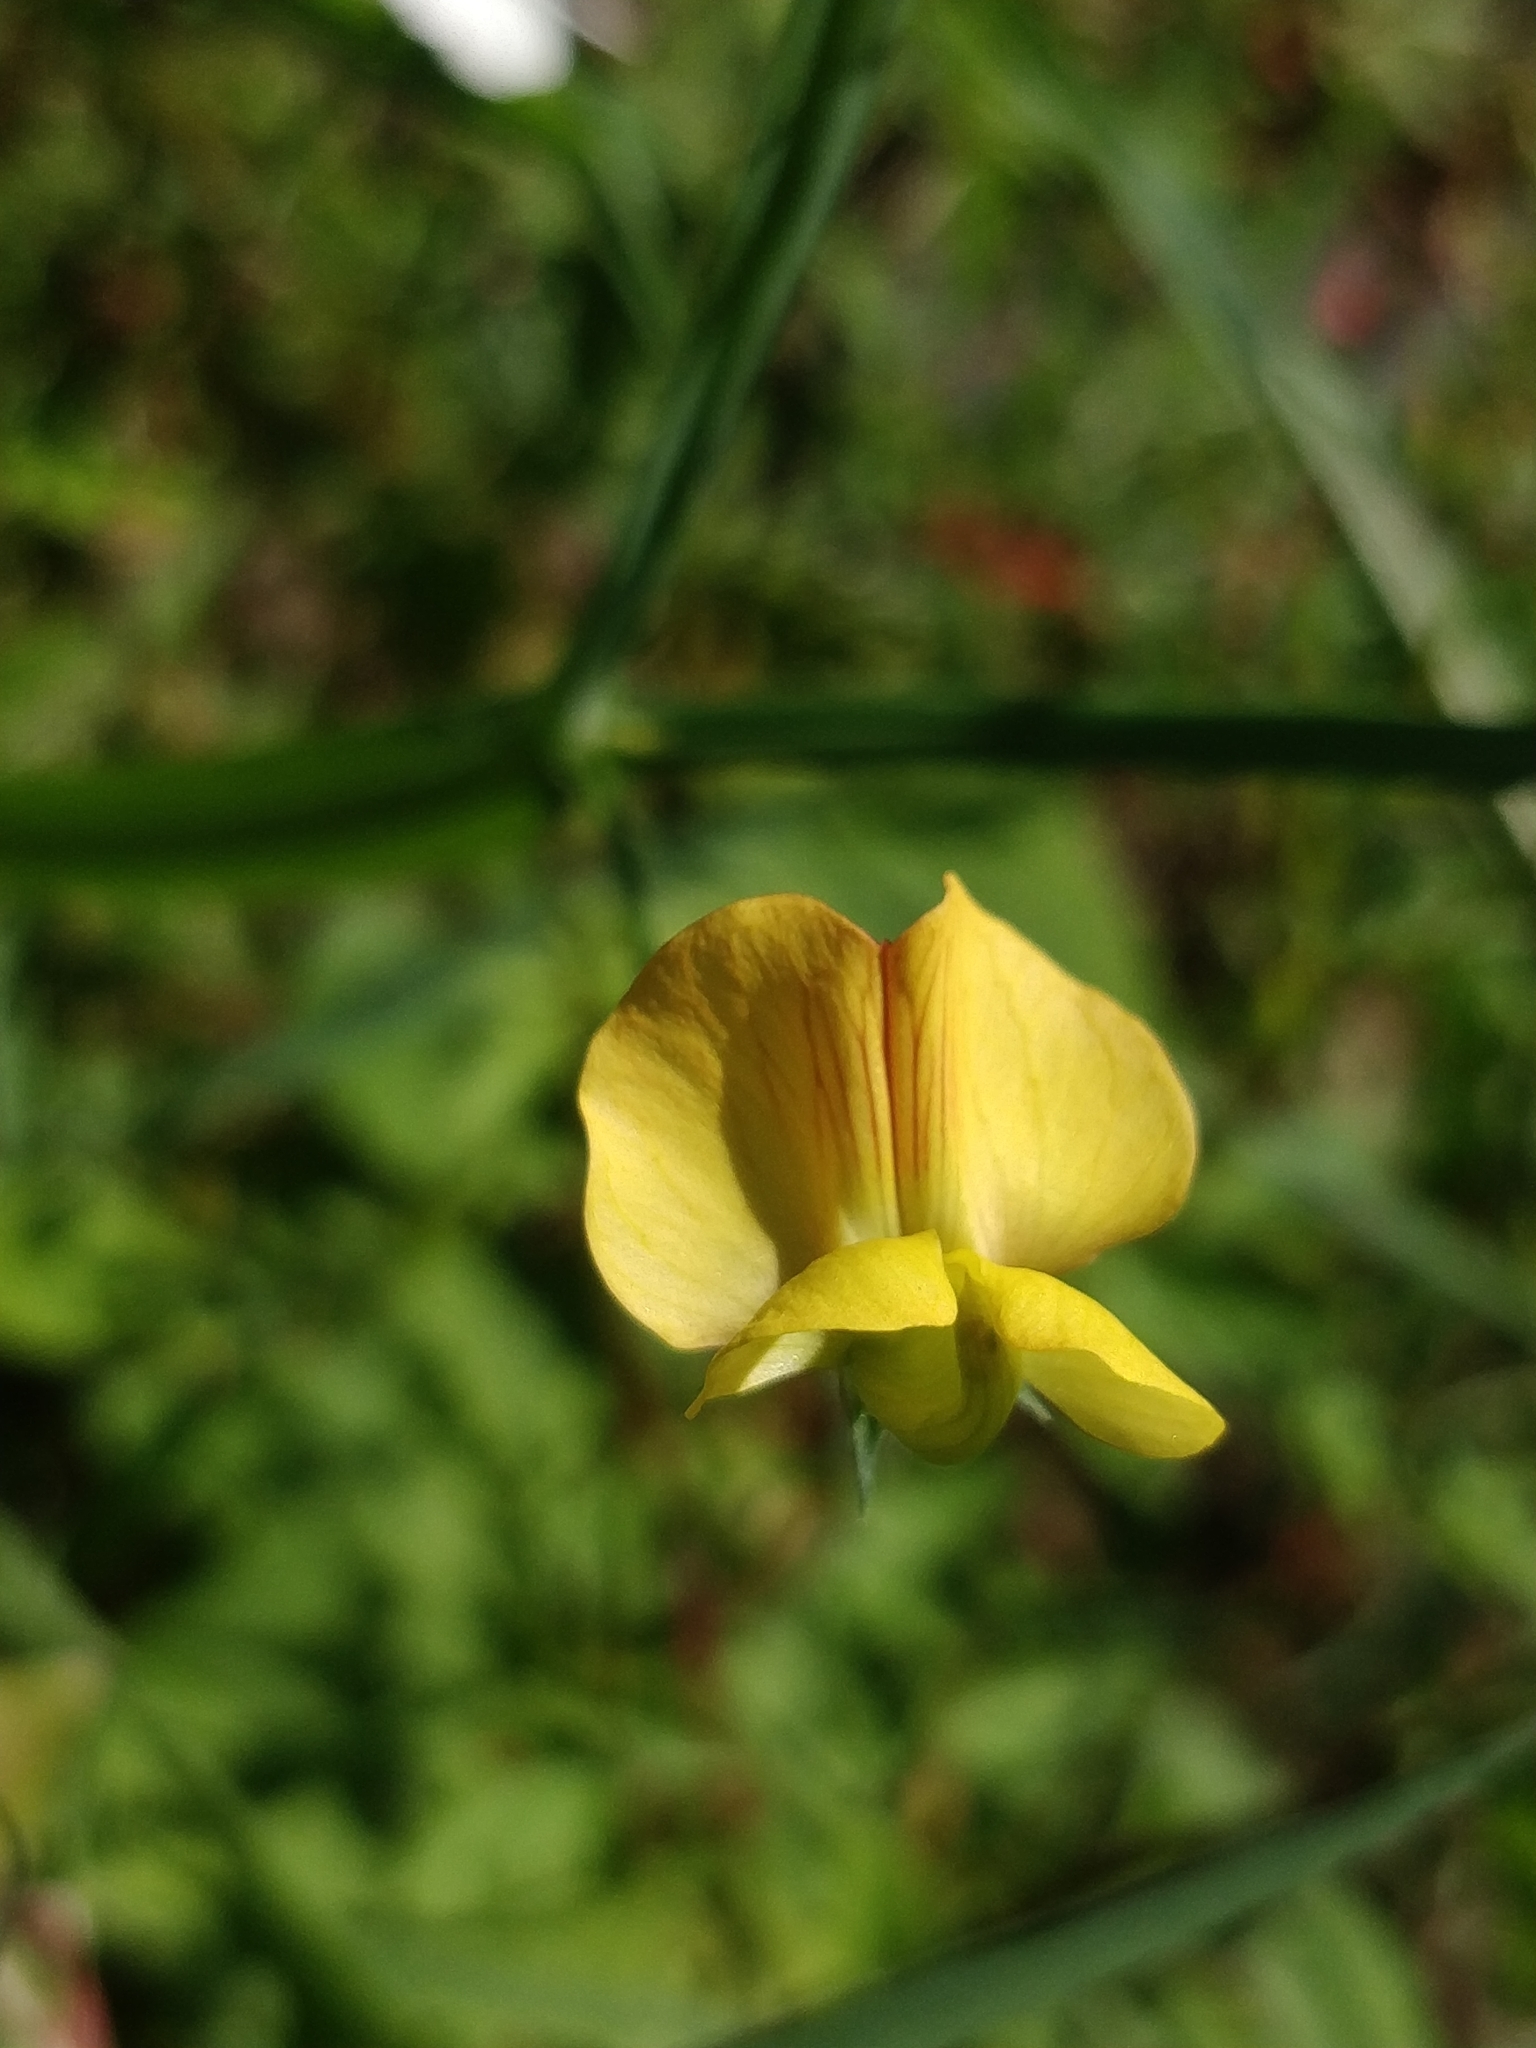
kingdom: Plantae
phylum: Tracheophyta
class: Magnoliopsida
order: Fabales
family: Fabaceae
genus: Lathyrus
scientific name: Lathyrus annuus
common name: Fodder pea
